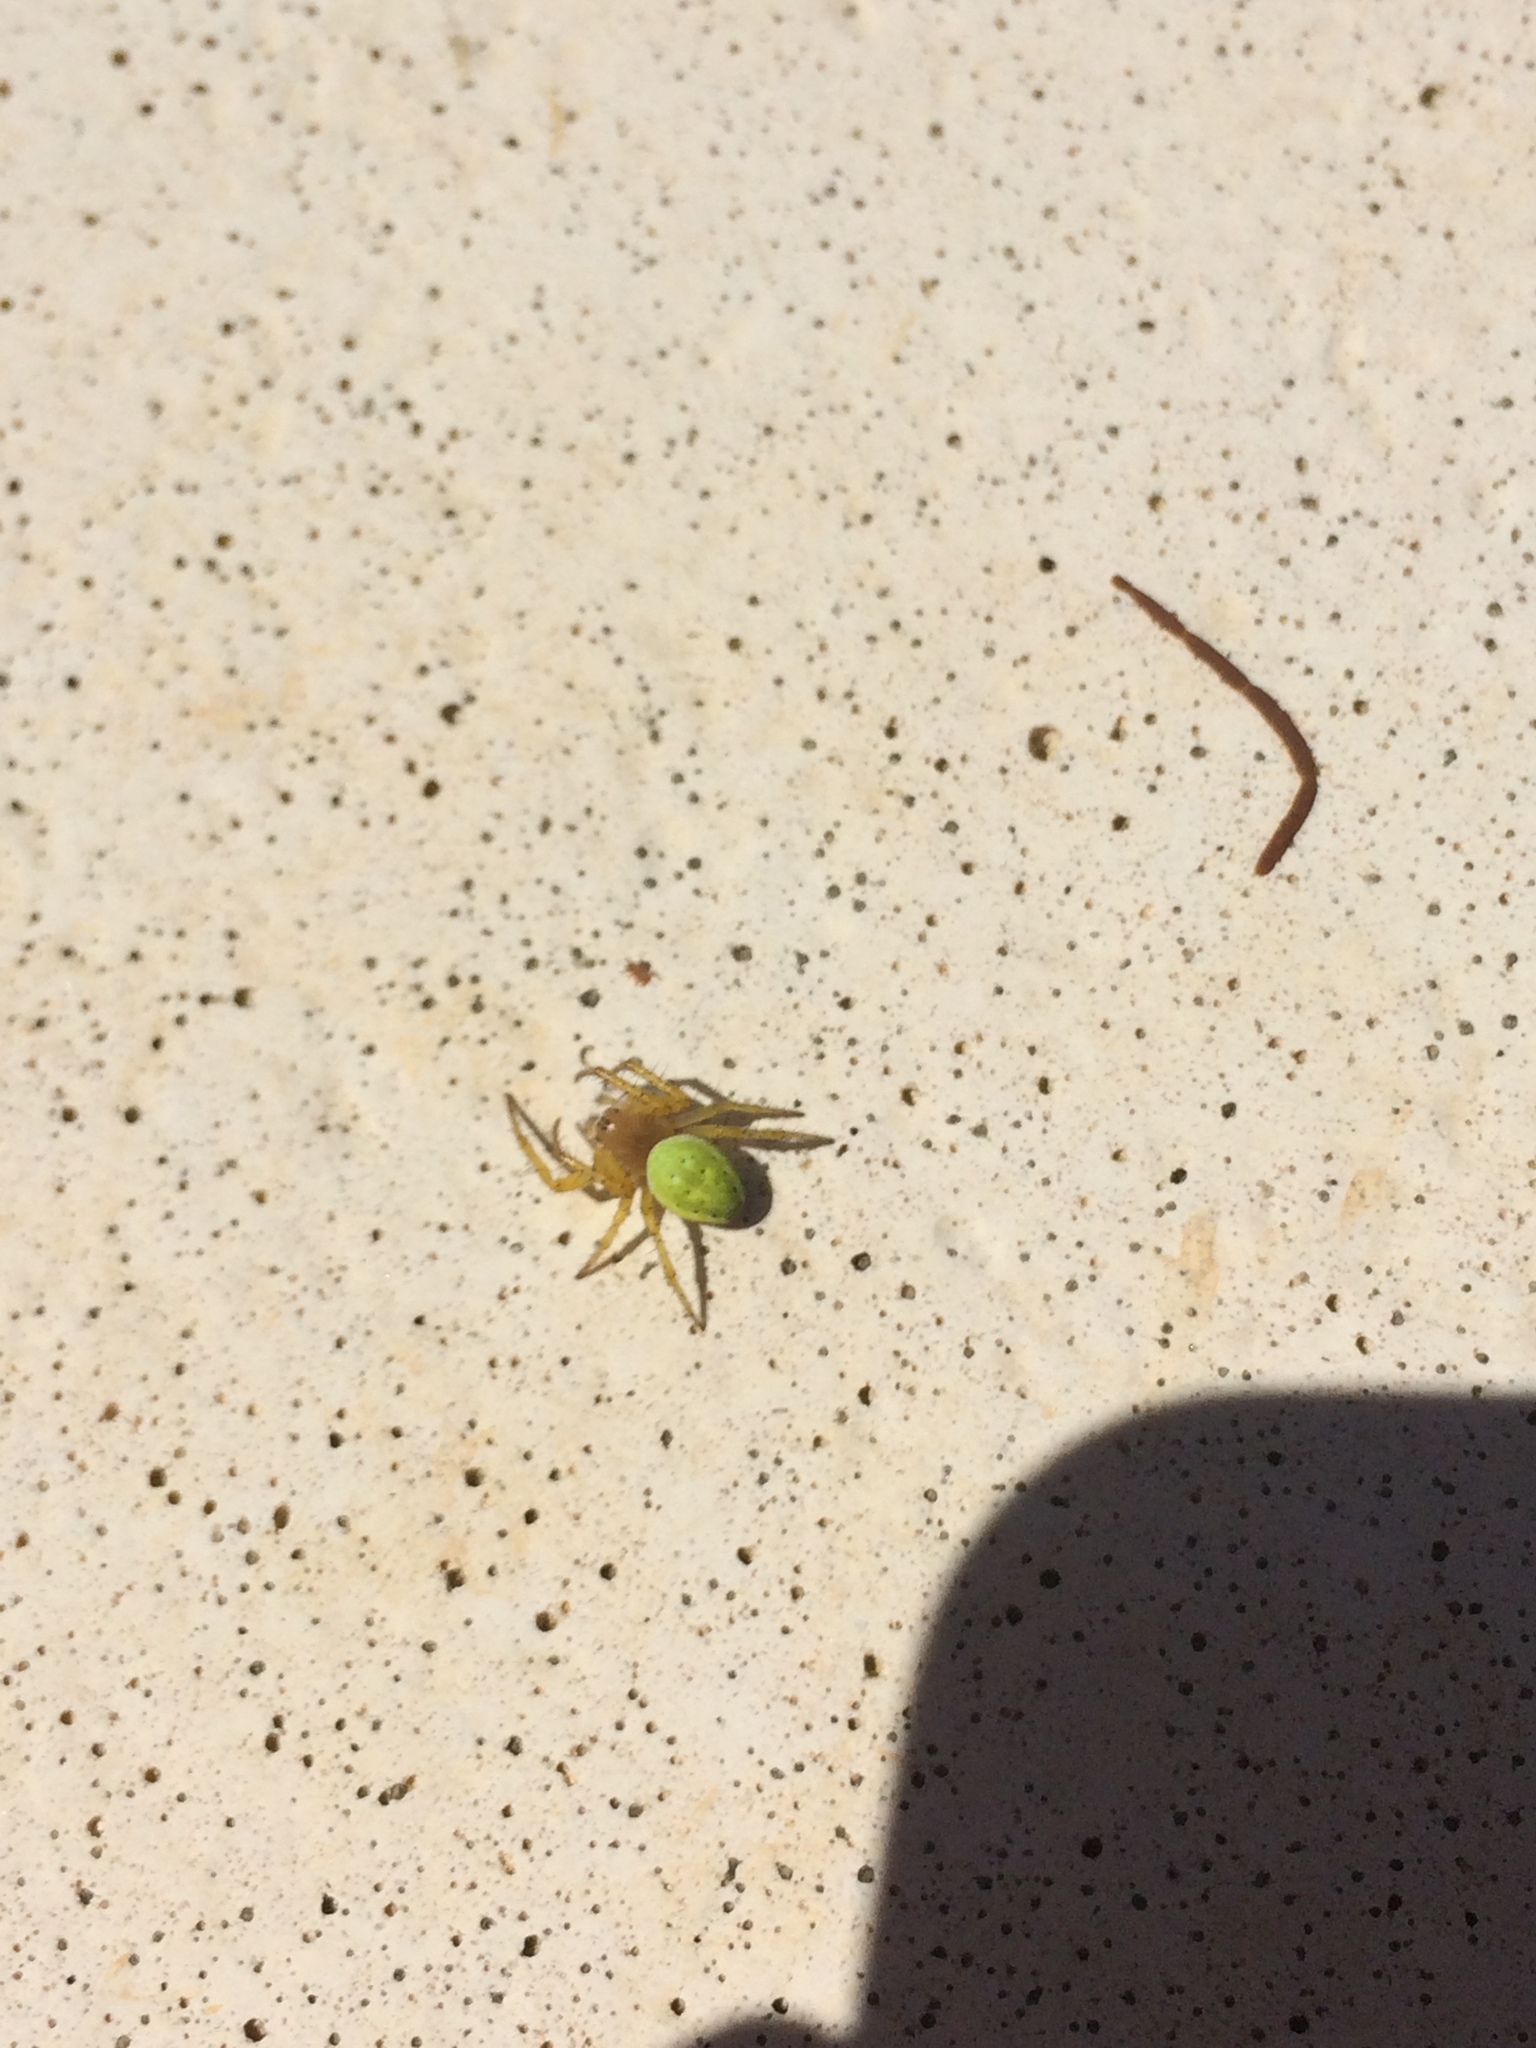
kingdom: Animalia
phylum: Arthropoda
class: Arachnida
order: Araneae
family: Araneidae
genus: Araniella
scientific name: Araniella cucurbitina
